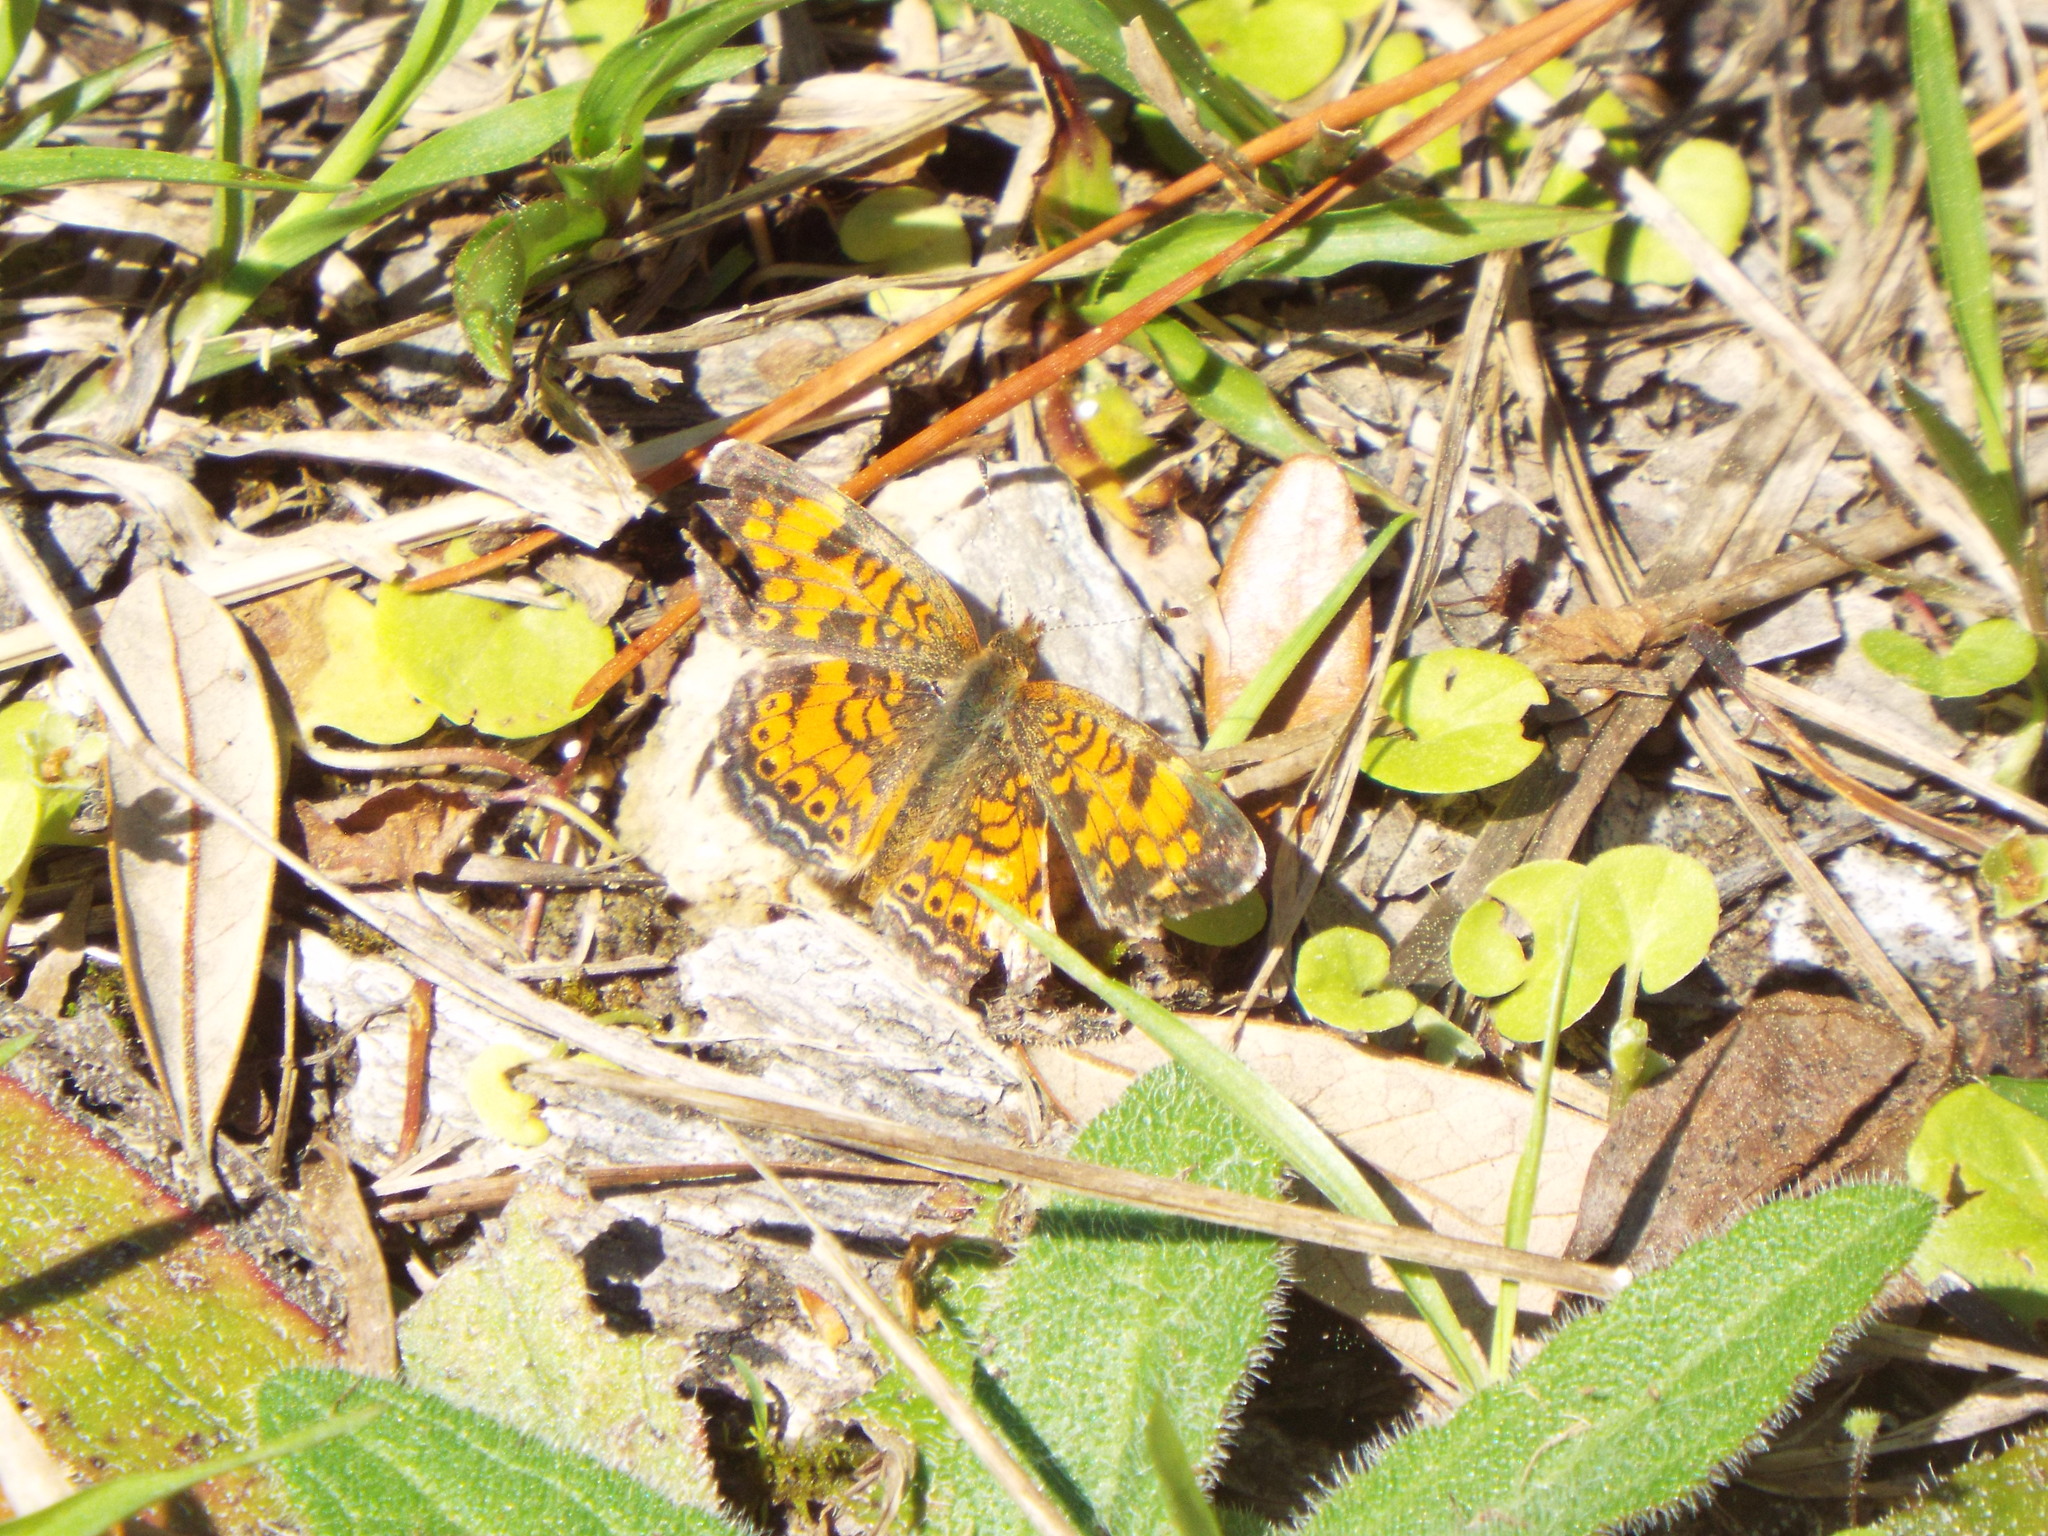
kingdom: Animalia
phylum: Arthropoda
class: Insecta
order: Lepidoptera
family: Nymphalidae
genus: Phyciodes
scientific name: Phyciodes tharos
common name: Pearl crescent
